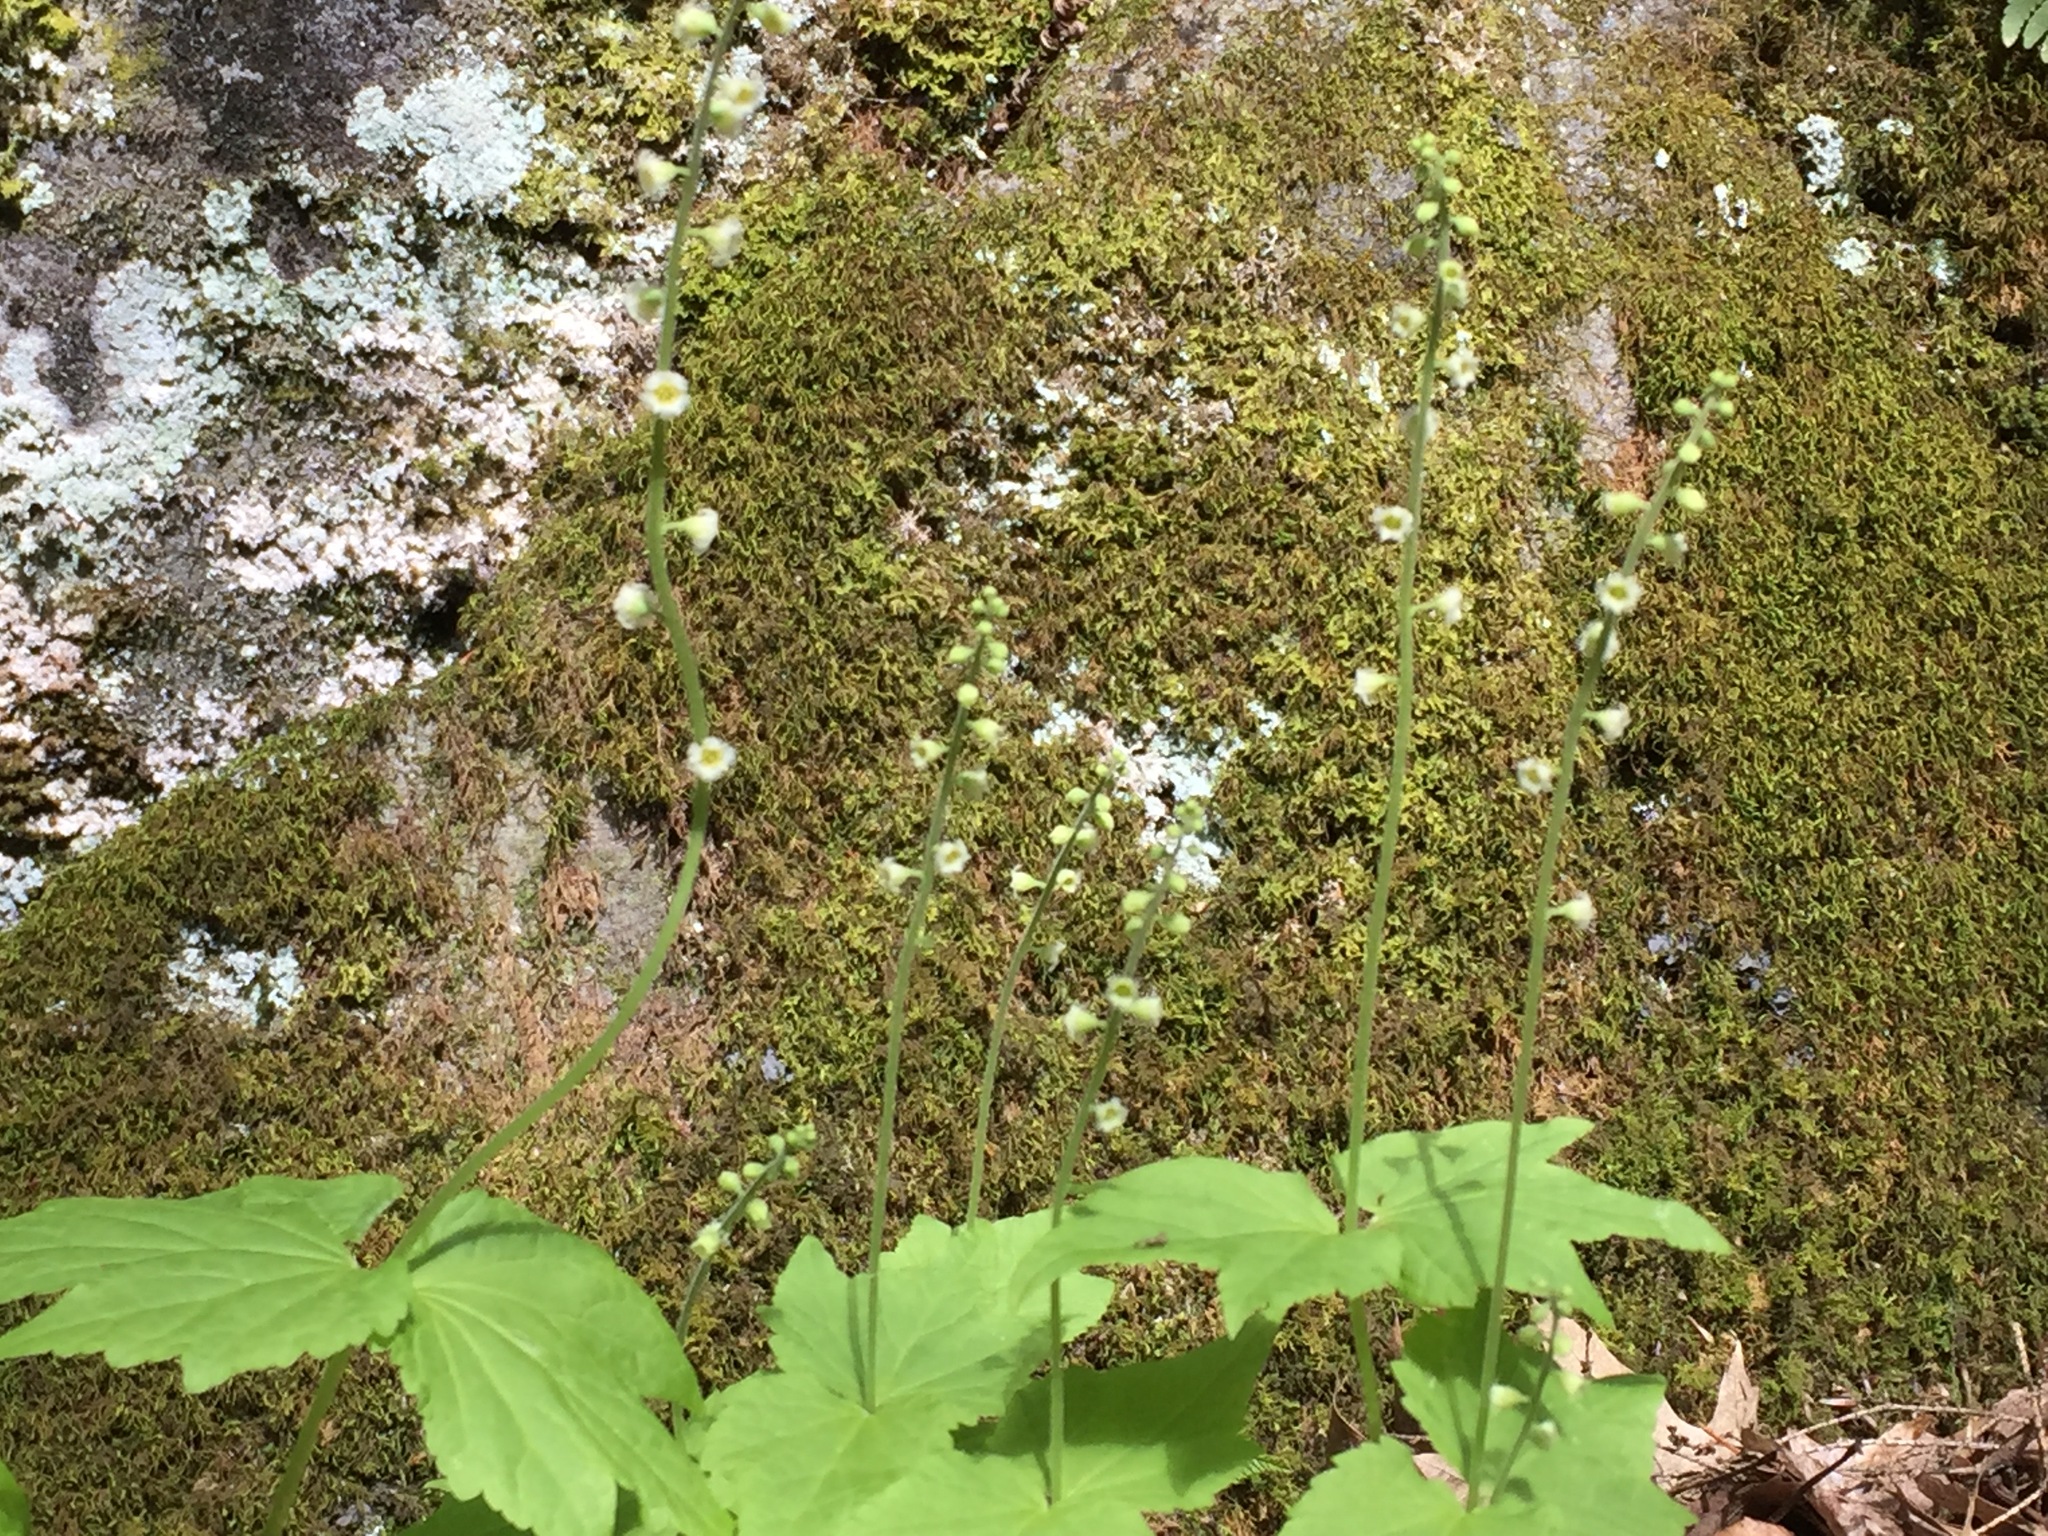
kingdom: Plantae
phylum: Tracheophyta
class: Magnoliopsida
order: Saxifragales
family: Saxifragaceae
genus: Mitella
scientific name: Mitella diphylla
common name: Coolwort
